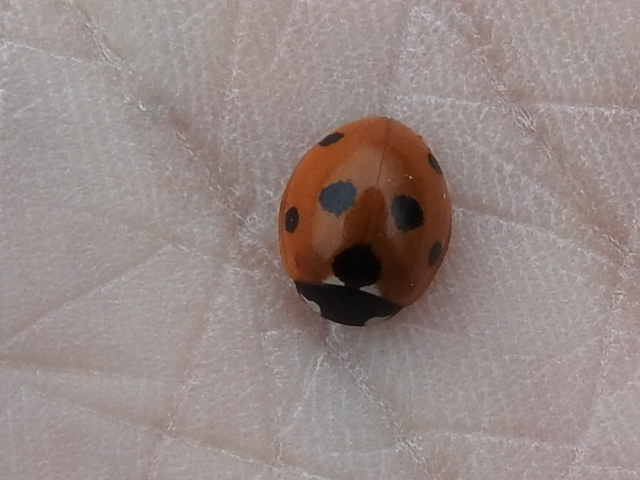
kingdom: Animalia
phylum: Arthropoda
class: Insecta
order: Coleoptera
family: Coccinellidae
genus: Coccinella
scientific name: Coccinella septempunctata
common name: Sevenspotted lady beetle
